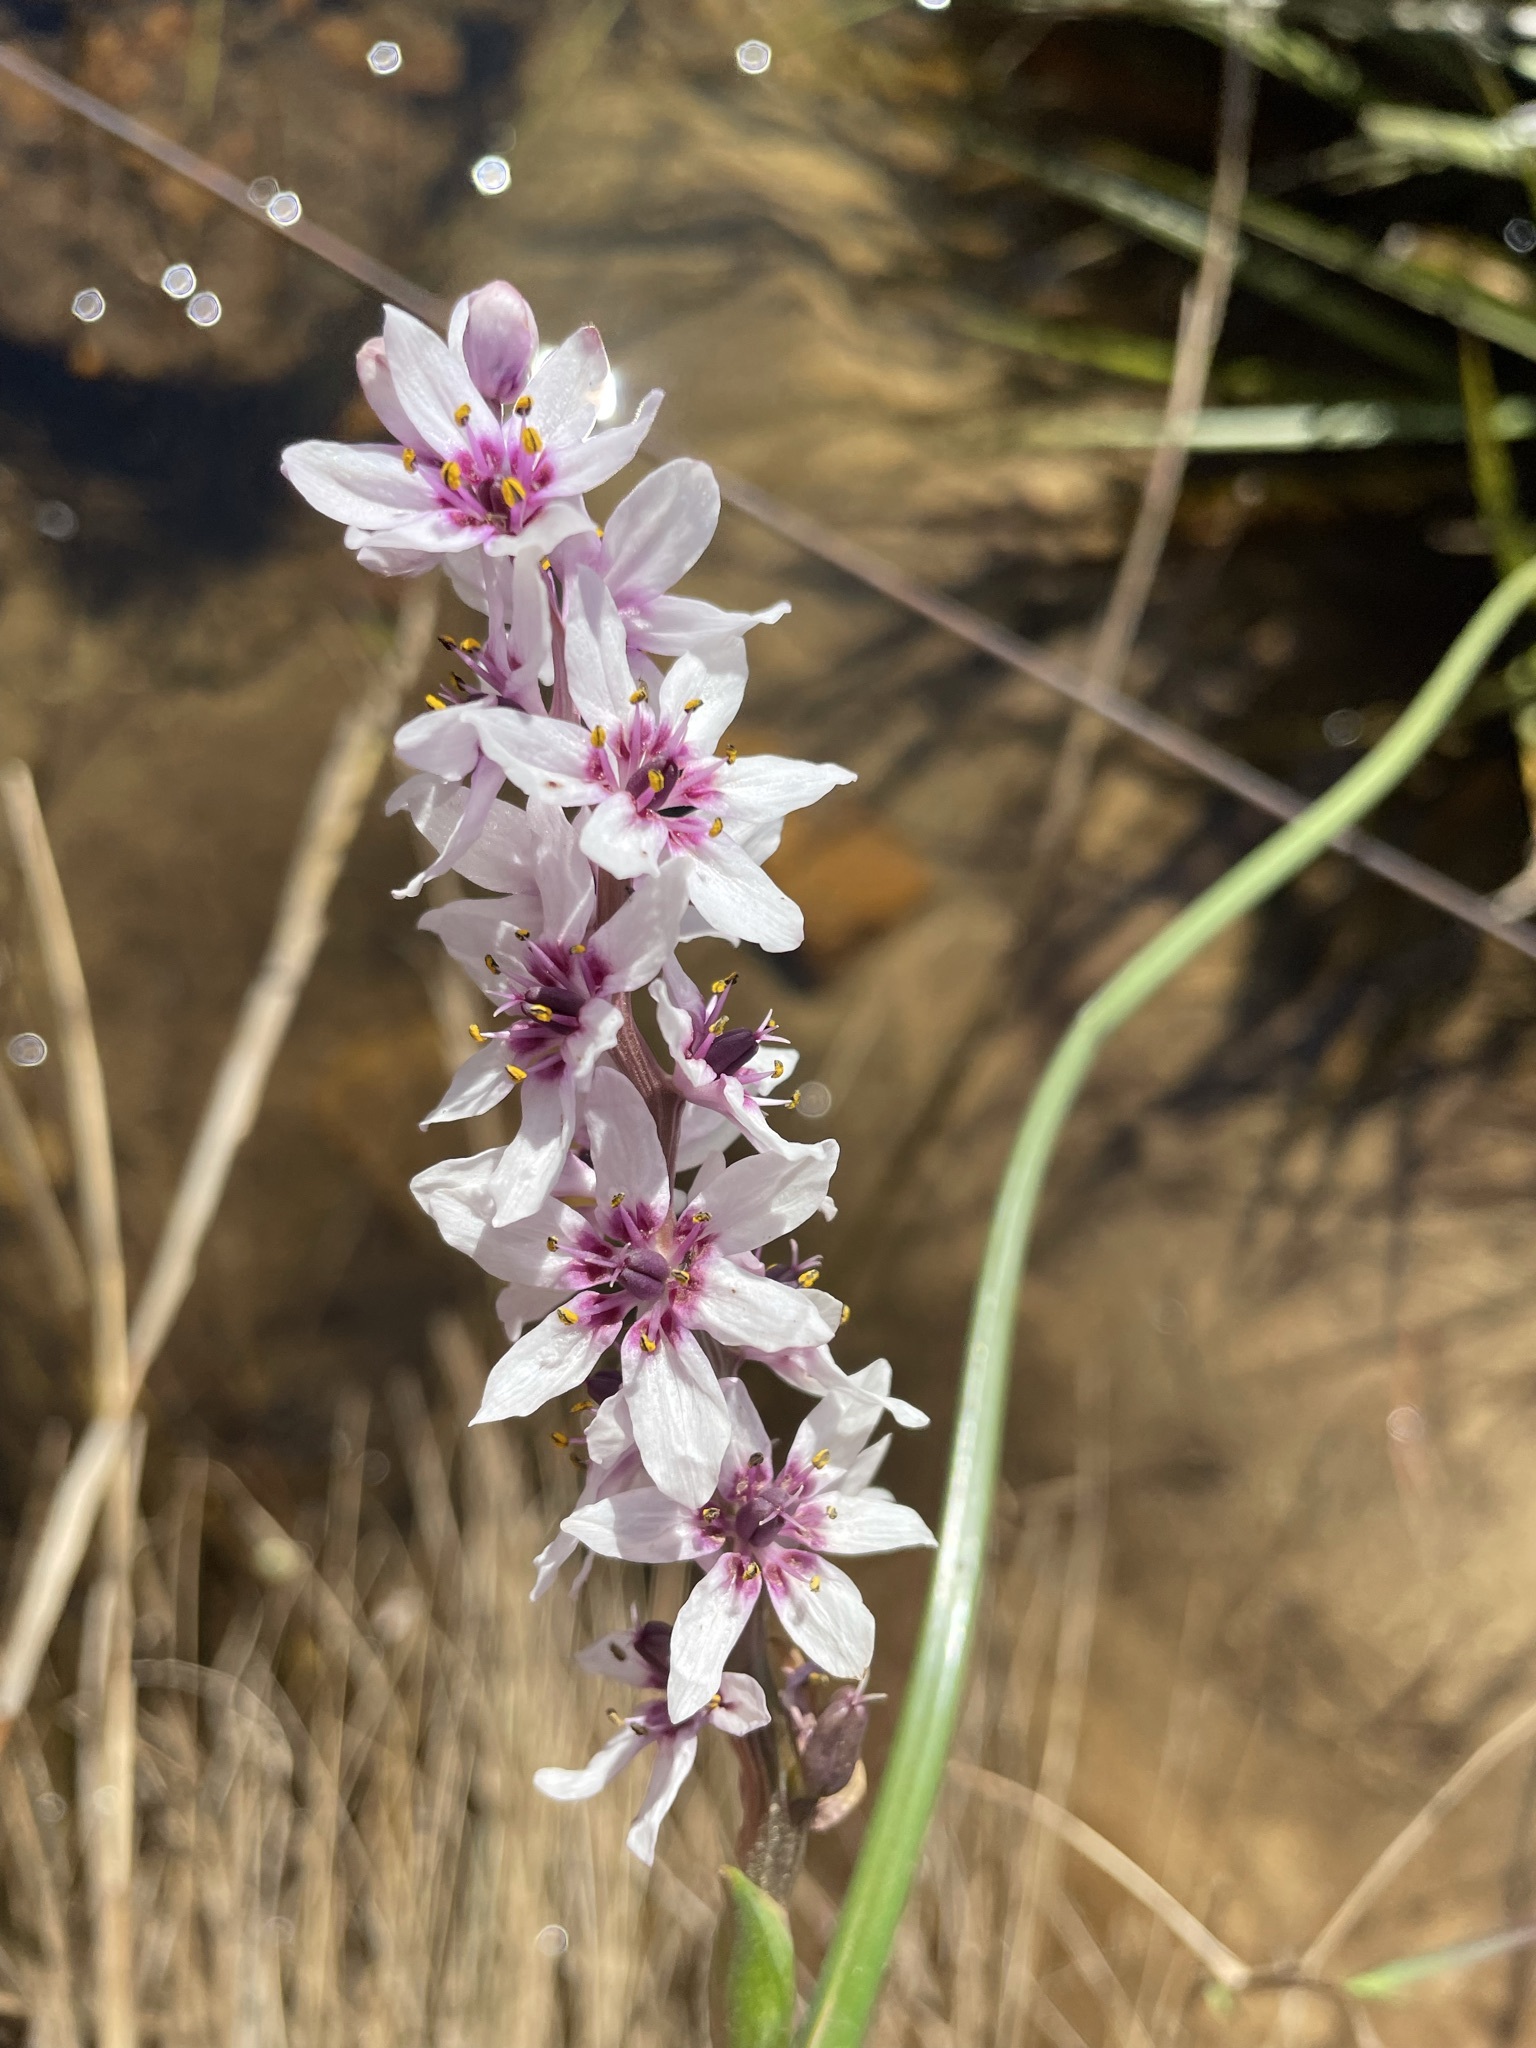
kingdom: Plantae
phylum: Tracheophyta
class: Liliopsida
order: Liliales
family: Colchicaceae
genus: Wurmbea
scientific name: Wurmbea stricta
